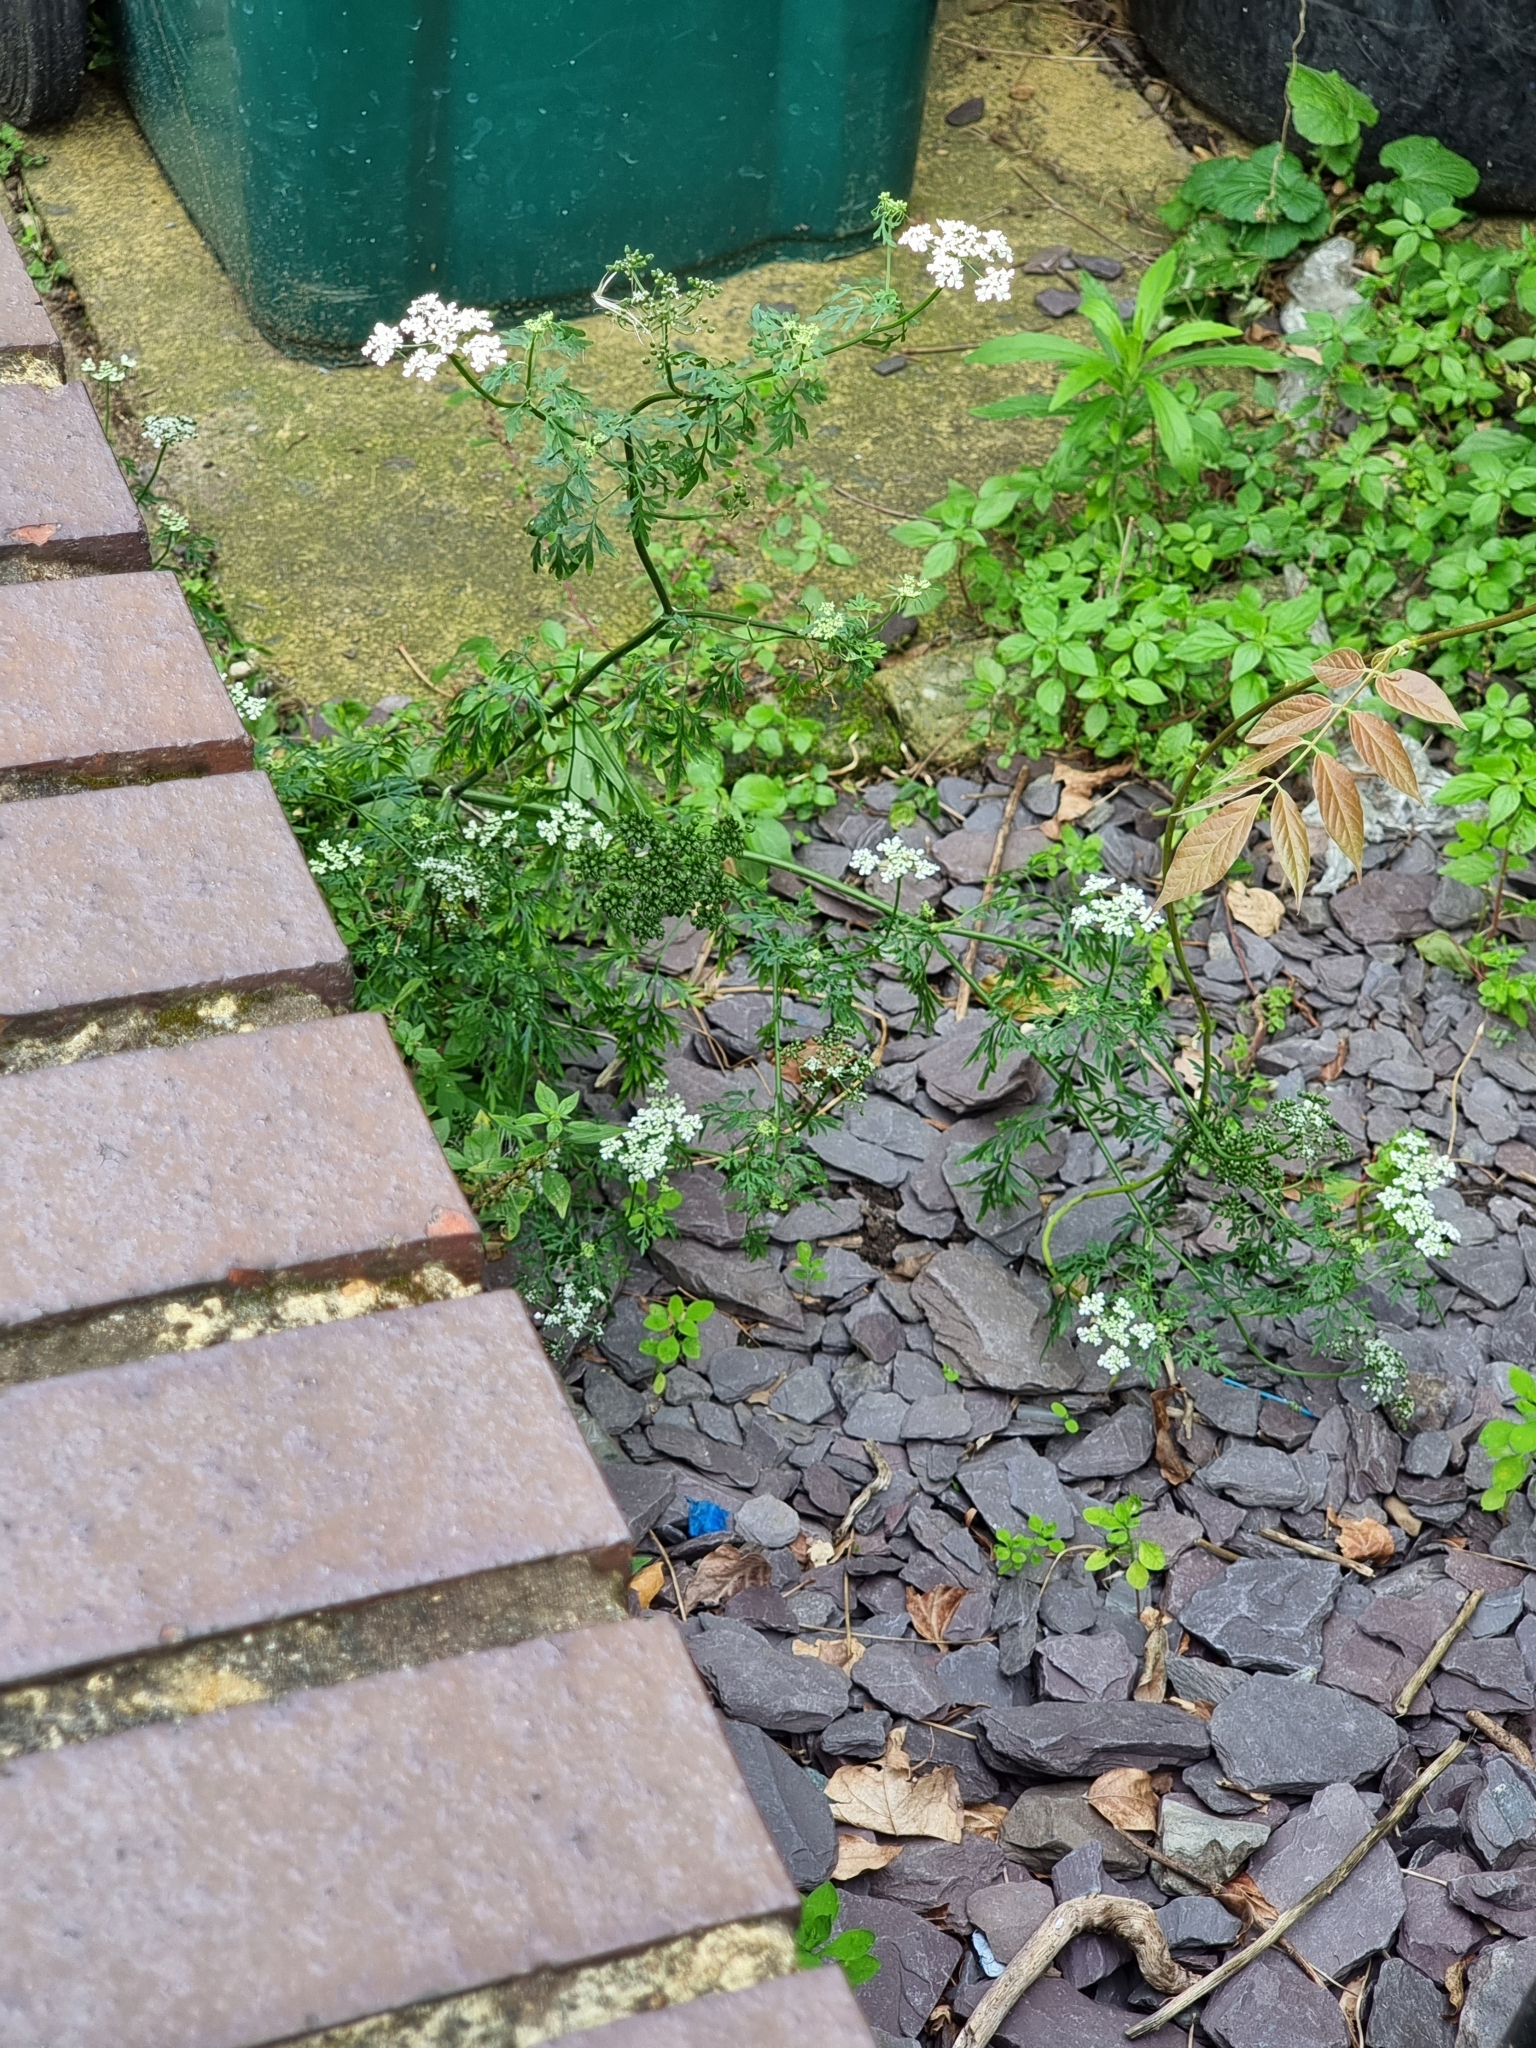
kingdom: Plantae
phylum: Tracheophyta
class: Magnoliopsida
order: Apiales
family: Apiaceae
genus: Aethusa
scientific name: Aethusa cynapium
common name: Fool's parsley
